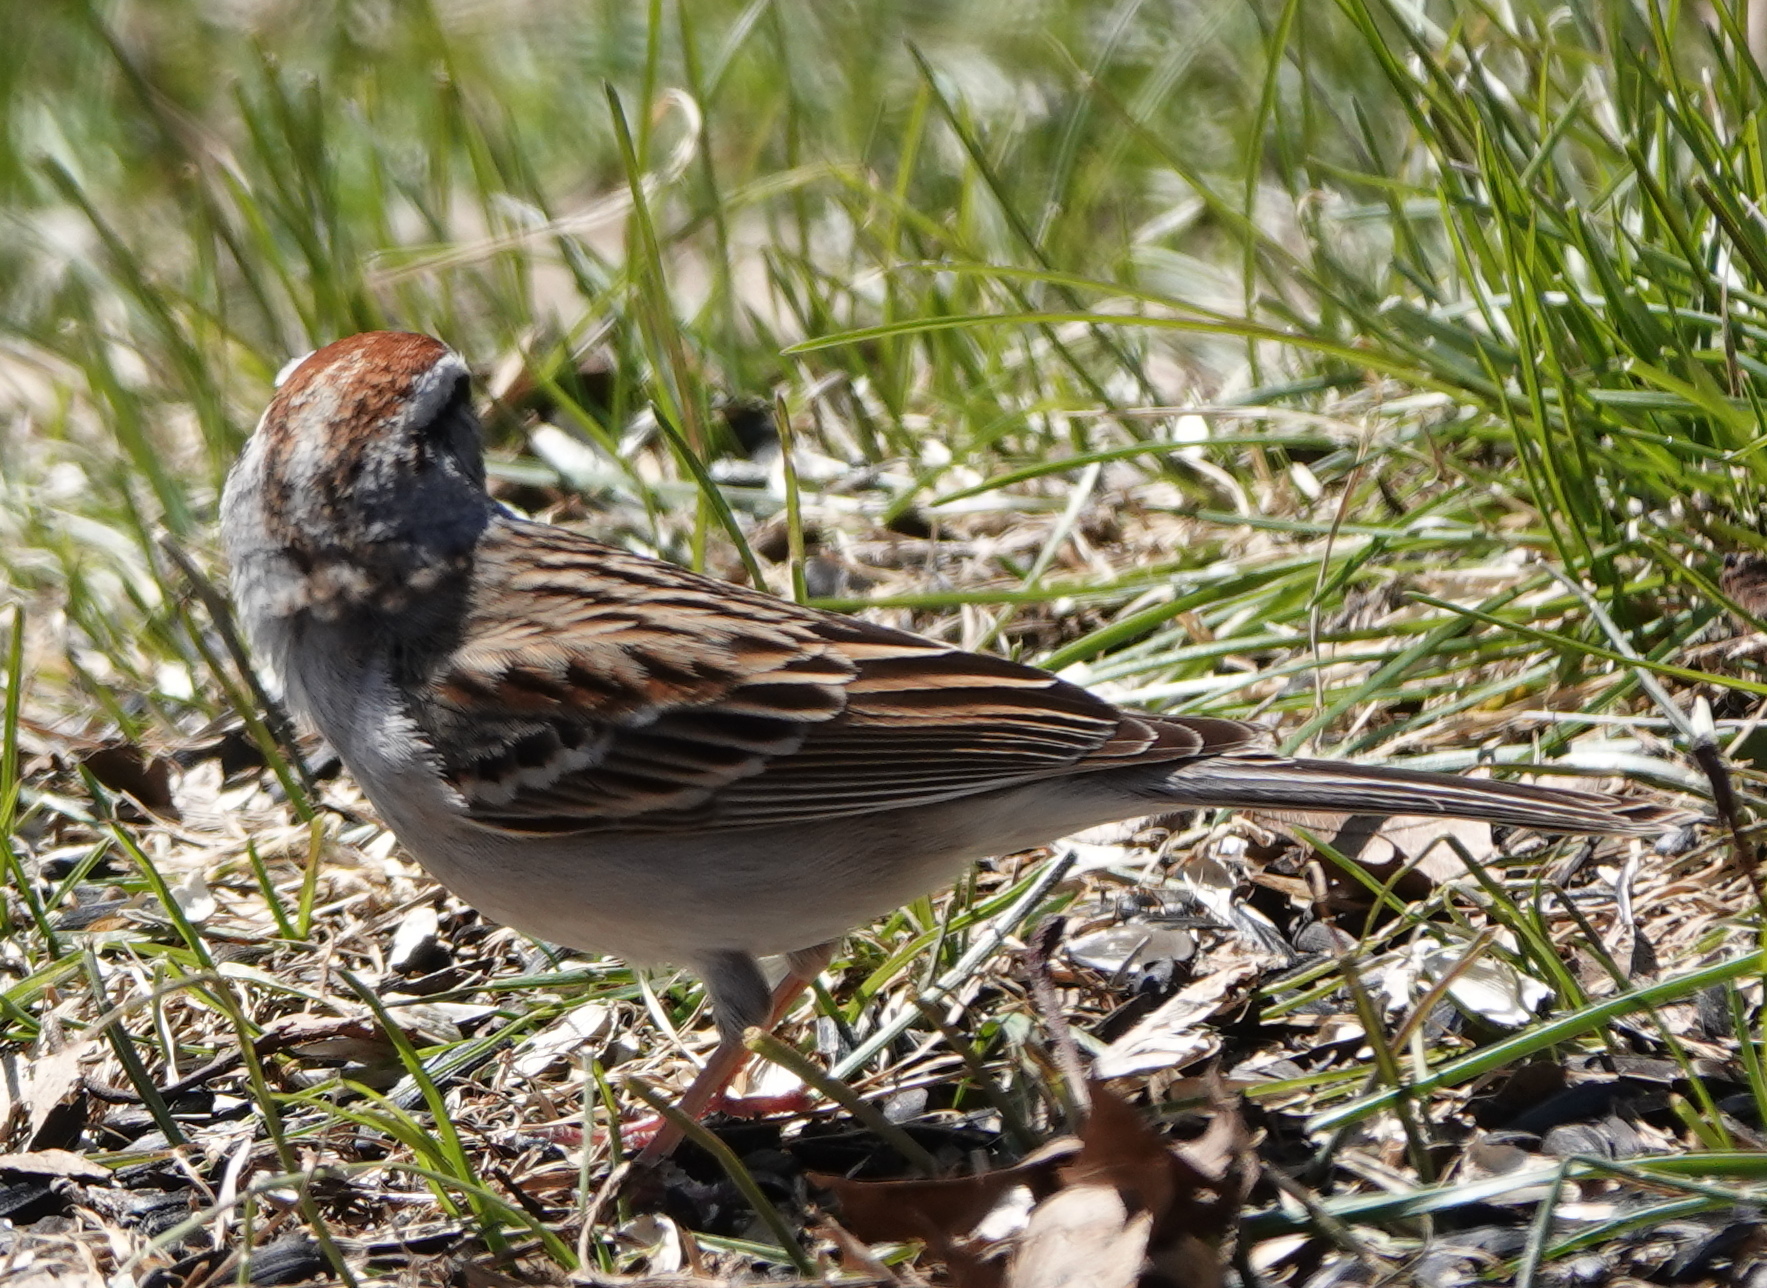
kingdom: Animalia
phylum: Chordata
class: Aves
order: Passeriformes
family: Passerellidae
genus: Spizella
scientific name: Spizella passerina
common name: Chipping sparrow
